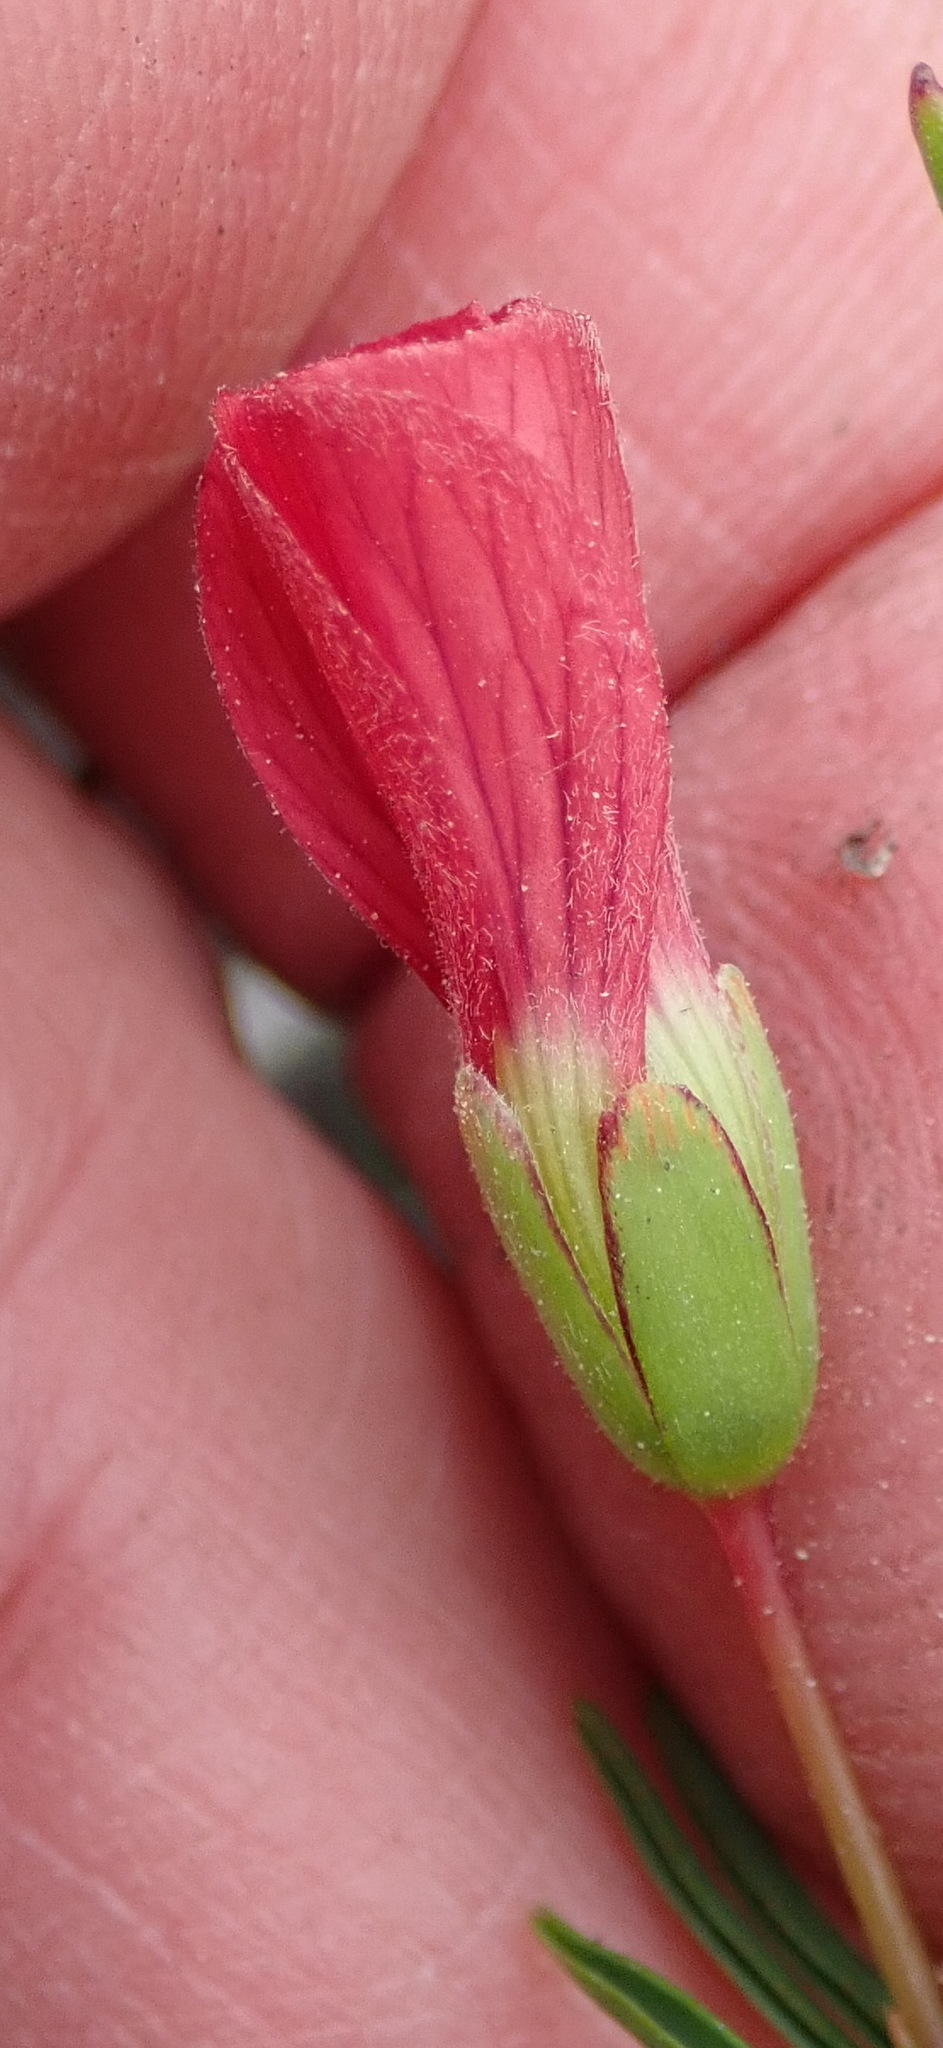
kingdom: Plantae
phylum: Tracheophyta
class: Magnoliopsida
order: Oxalidales
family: Oxalidaceae
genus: Oxalis
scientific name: Oxalis pendulifolia
